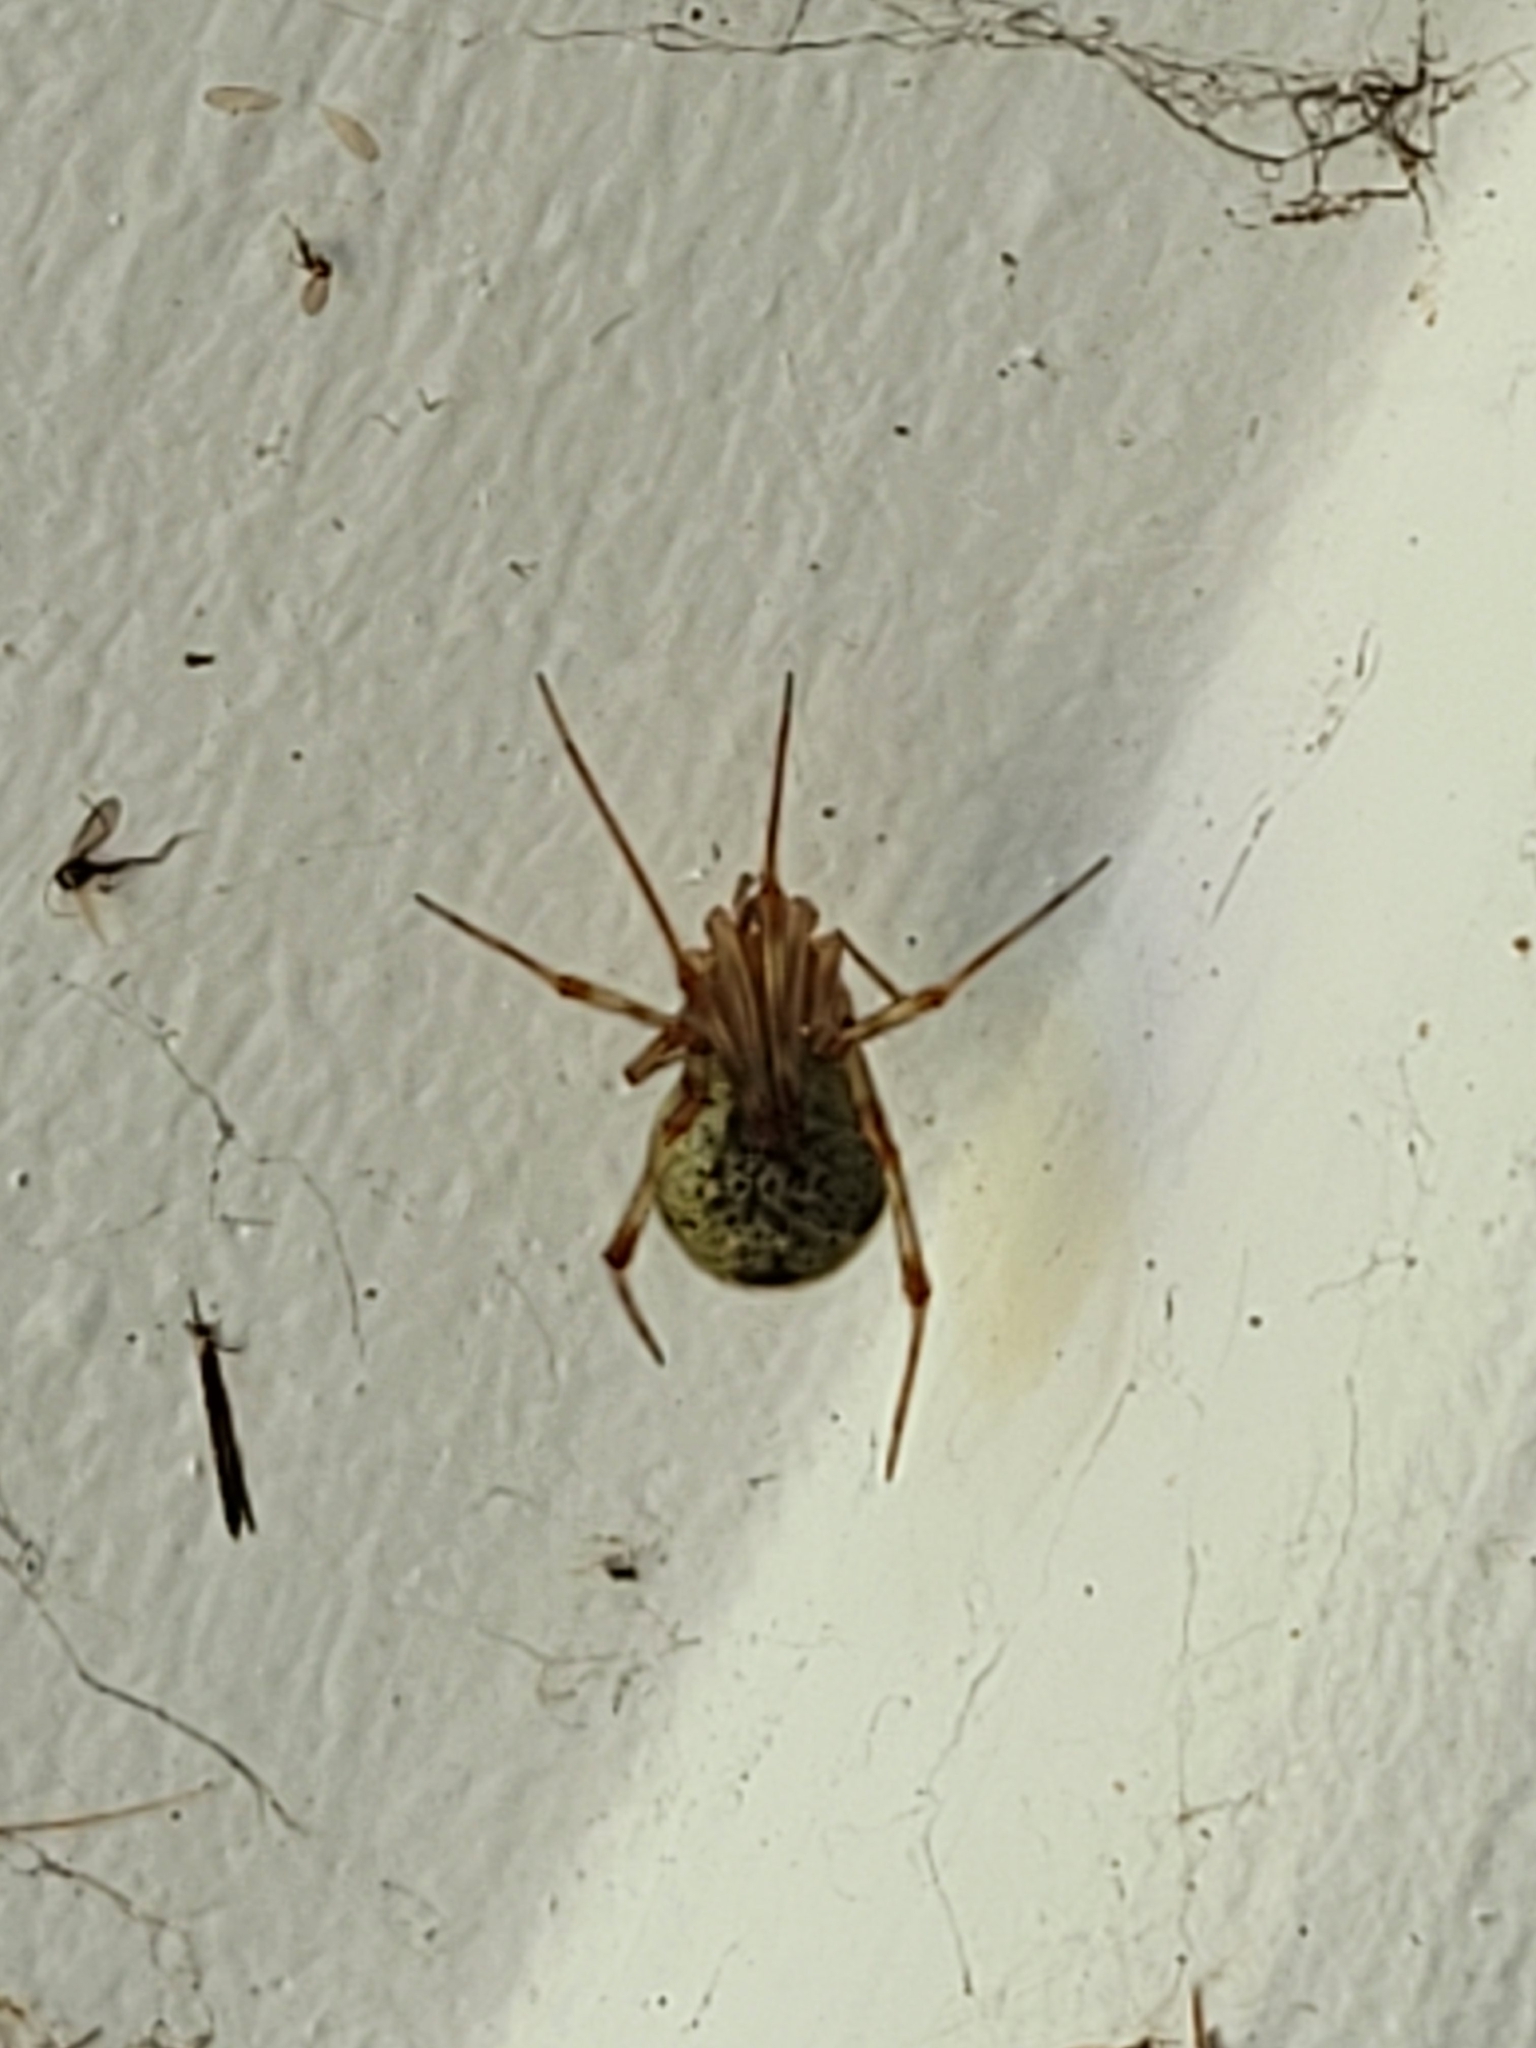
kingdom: Animalia
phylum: Arthropoda
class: Arachnida
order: Araneae
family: Theridiidae
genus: Parasteatoda
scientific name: Parasteatoda tepidariorum
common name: Common house spider
